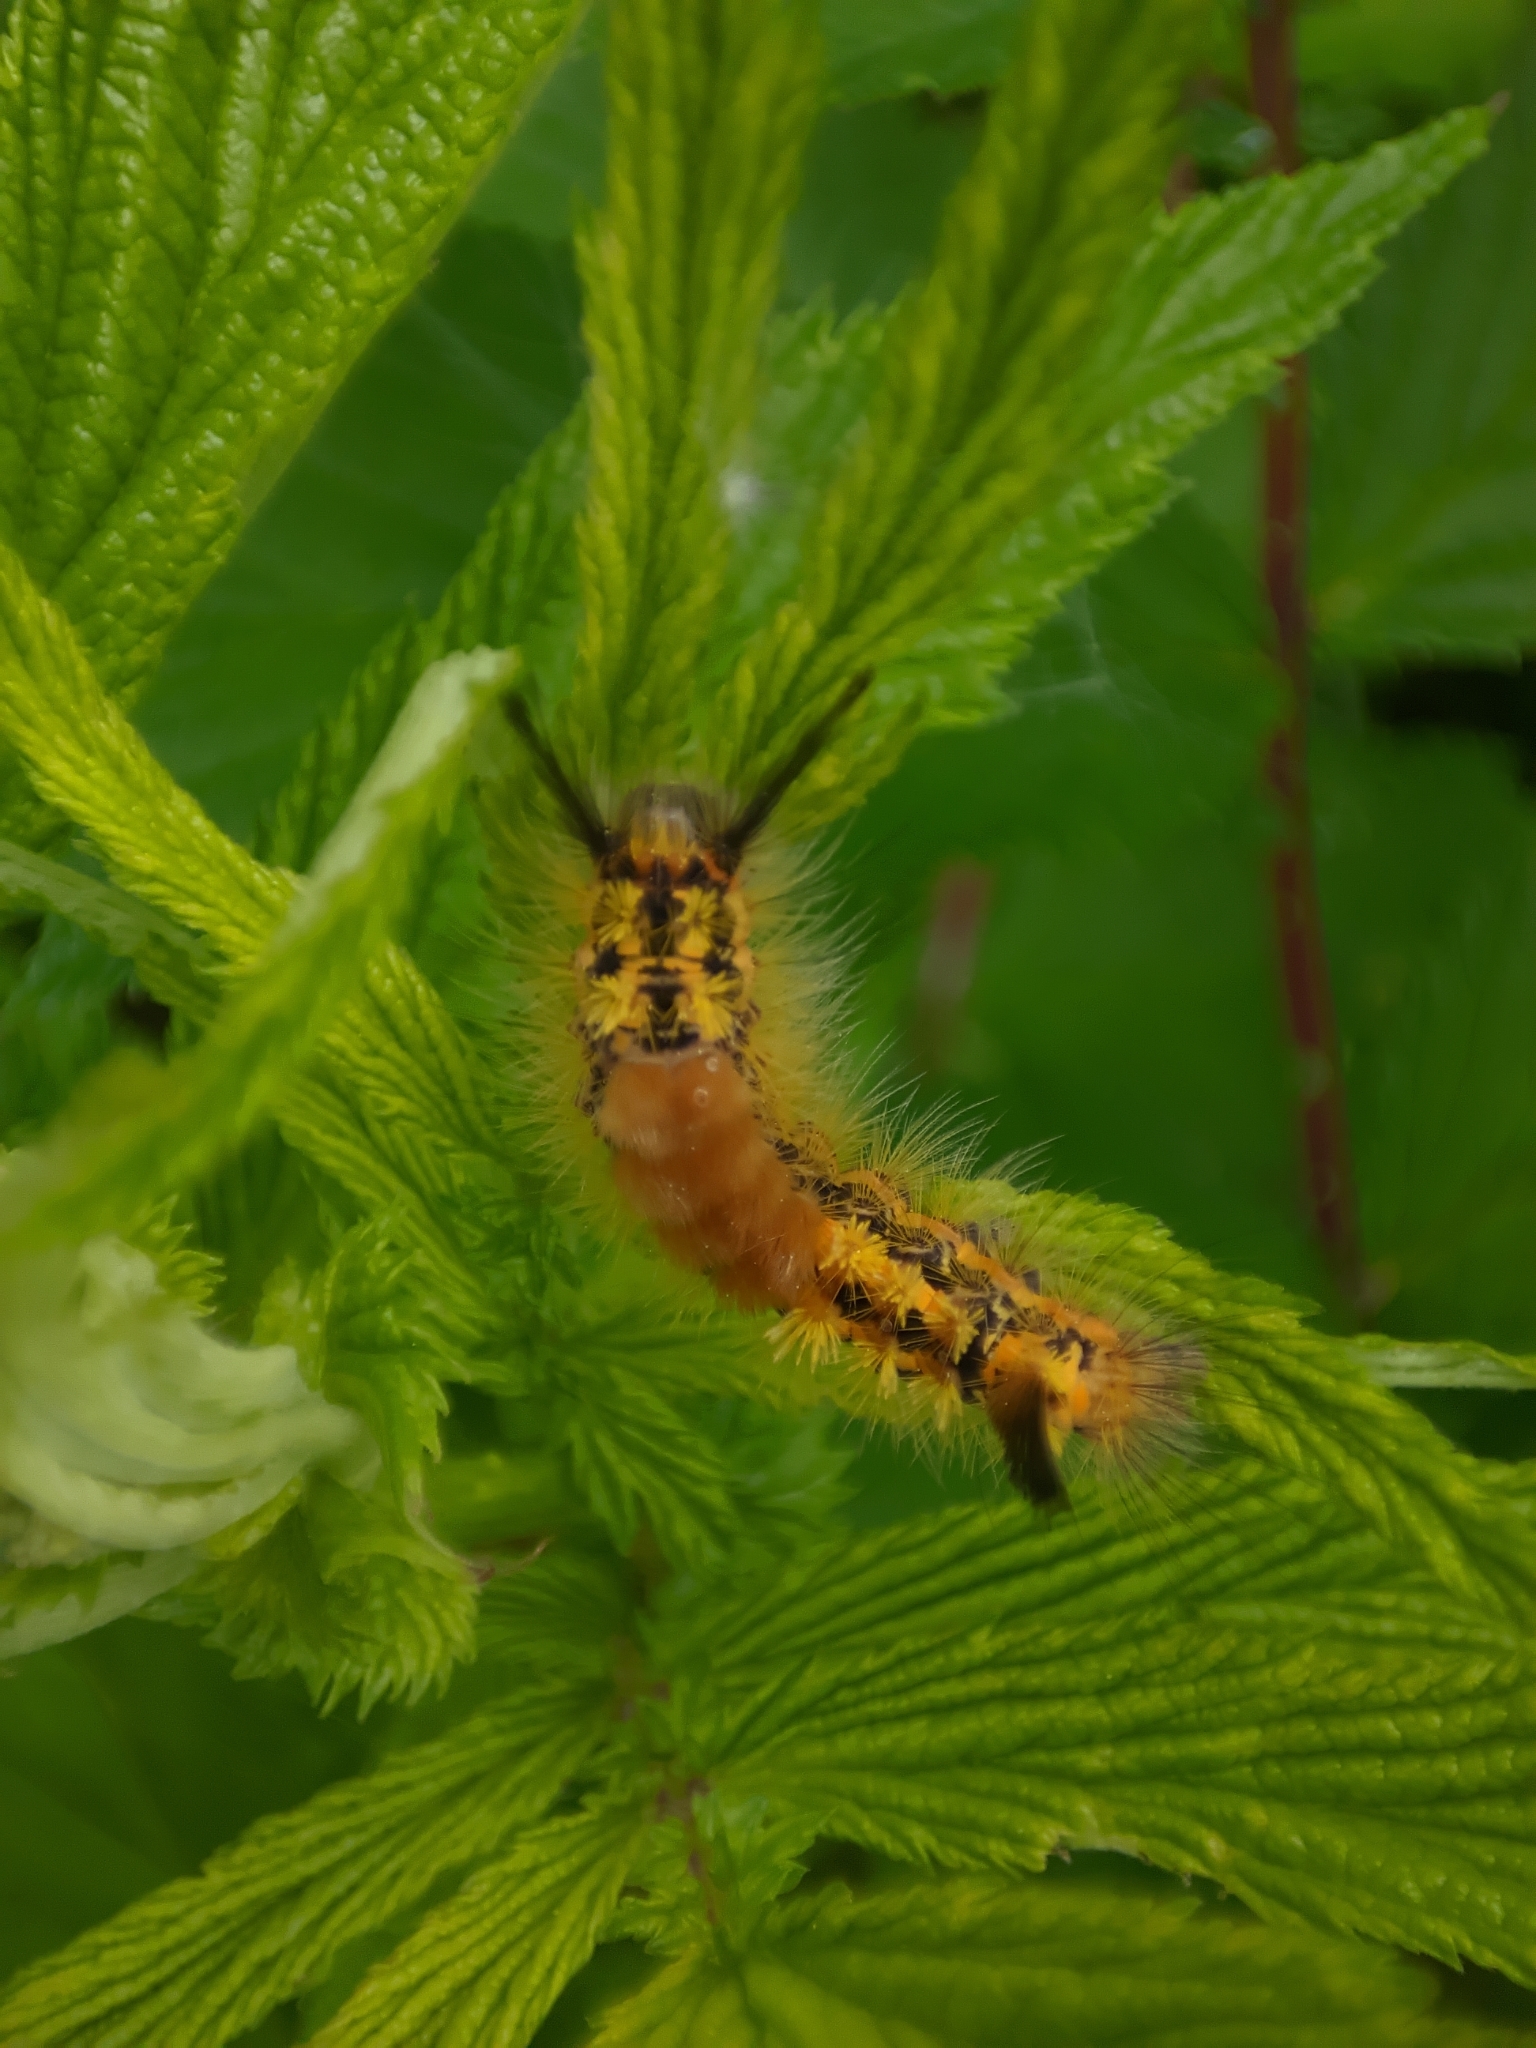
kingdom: Animalia
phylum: Arthropoda
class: Insecta
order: Lepidoptera
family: Erebidae
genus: Orgyia
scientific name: Orgyia recens
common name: Scarce vapourer
